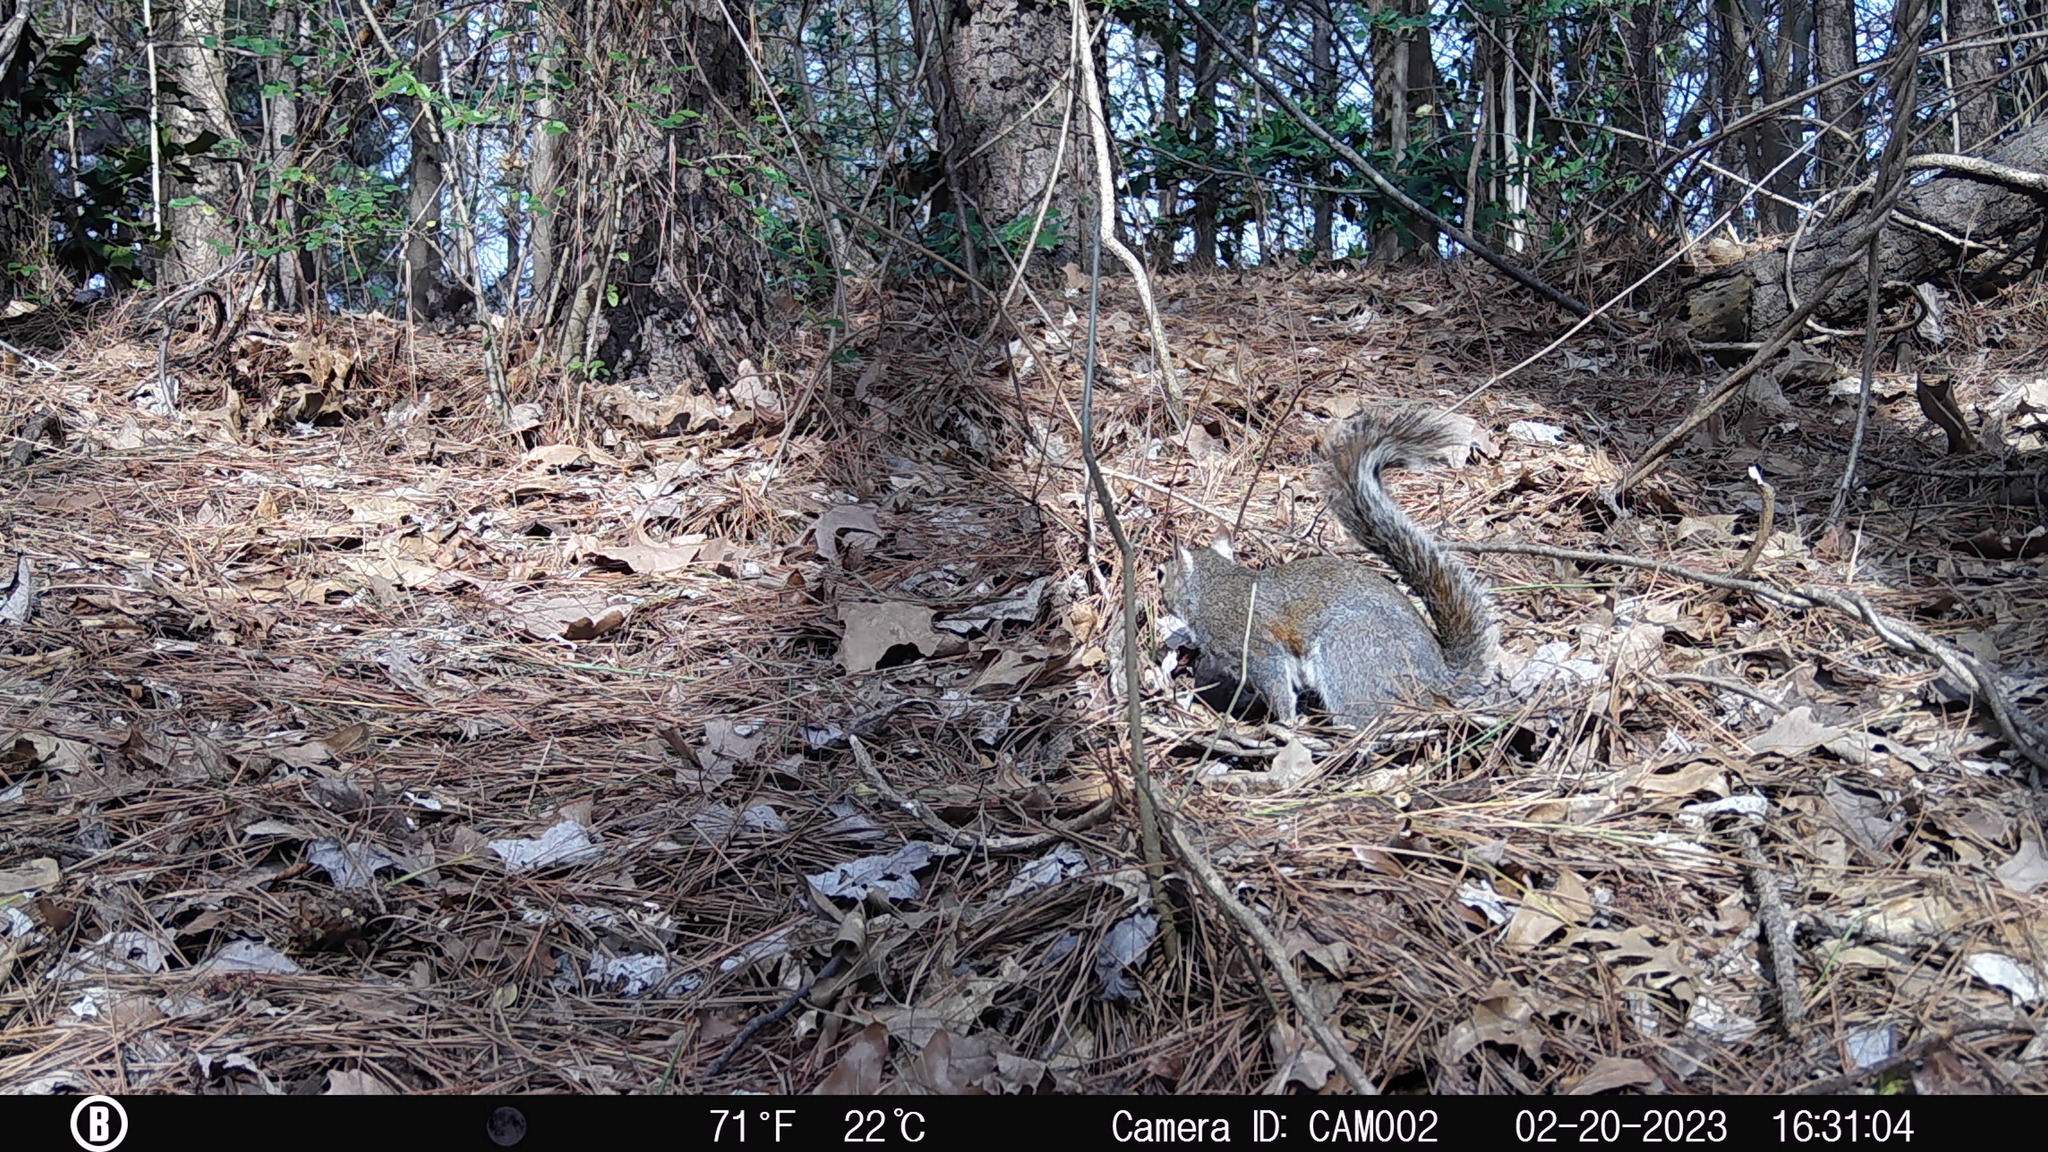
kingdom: Animalia
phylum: Chordata
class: Mammalia
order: Rodentia
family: Sciuridae
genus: Sciurus
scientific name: Sciurus carolinensis
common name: Eastern gray squirrel
